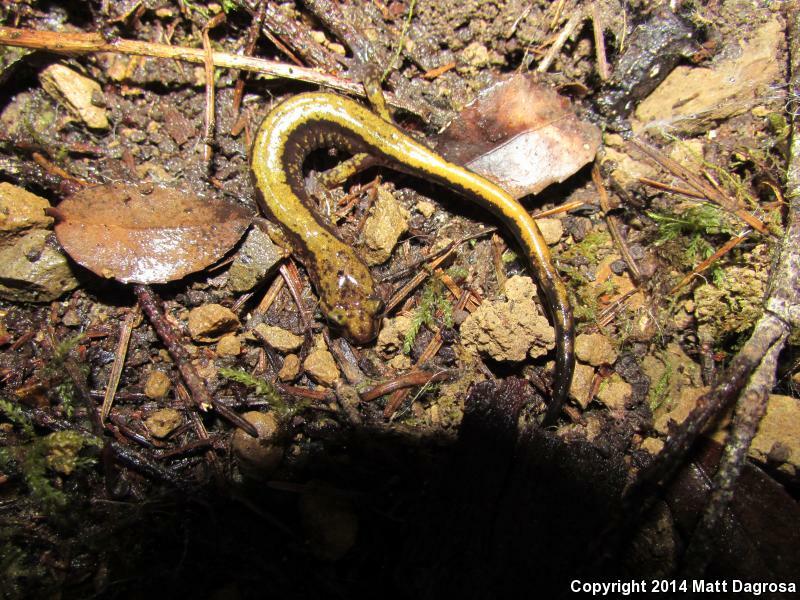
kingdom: Animalia
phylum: Chordata
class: Amphibia
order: Caudata
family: Plethodontidae
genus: Plethodon
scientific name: Plethodon dunni
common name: Dunn's salamander
